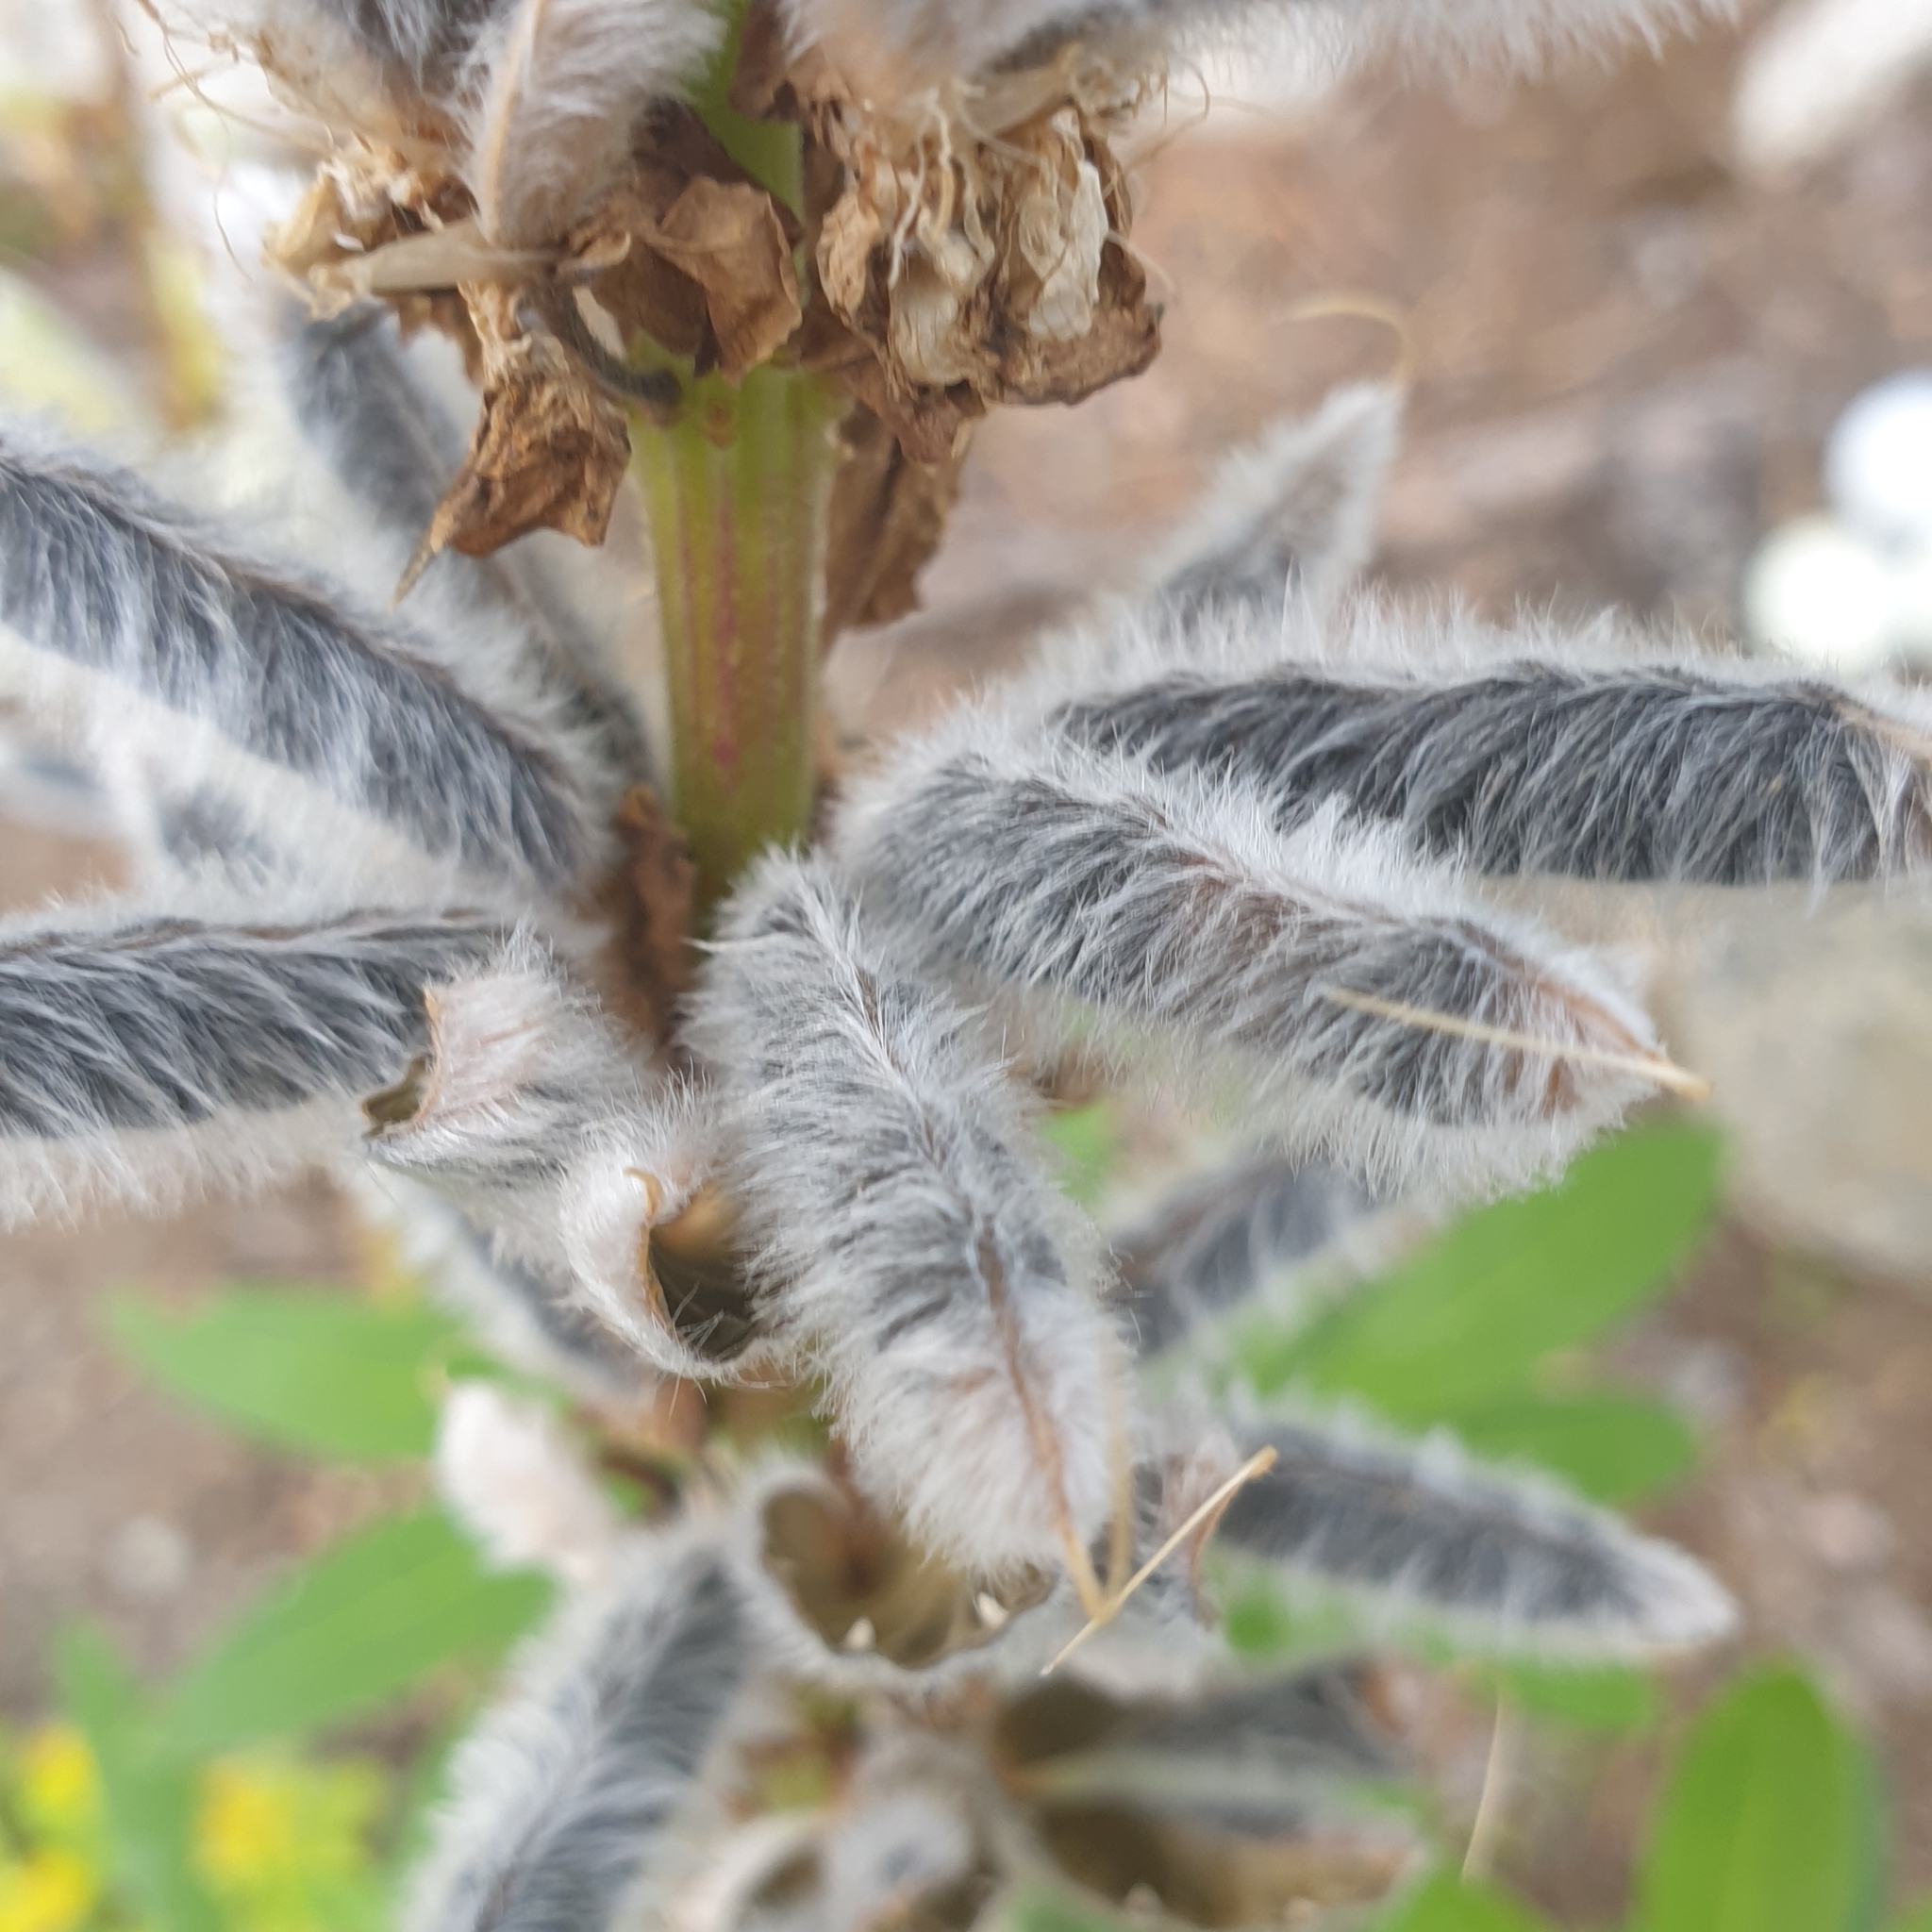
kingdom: Plantae
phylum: Tracheophyta
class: Magnoliopsida
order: Fabales
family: Fabaceae
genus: Lupinus
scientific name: Lupinus polyphyllus
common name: Garden lupin
